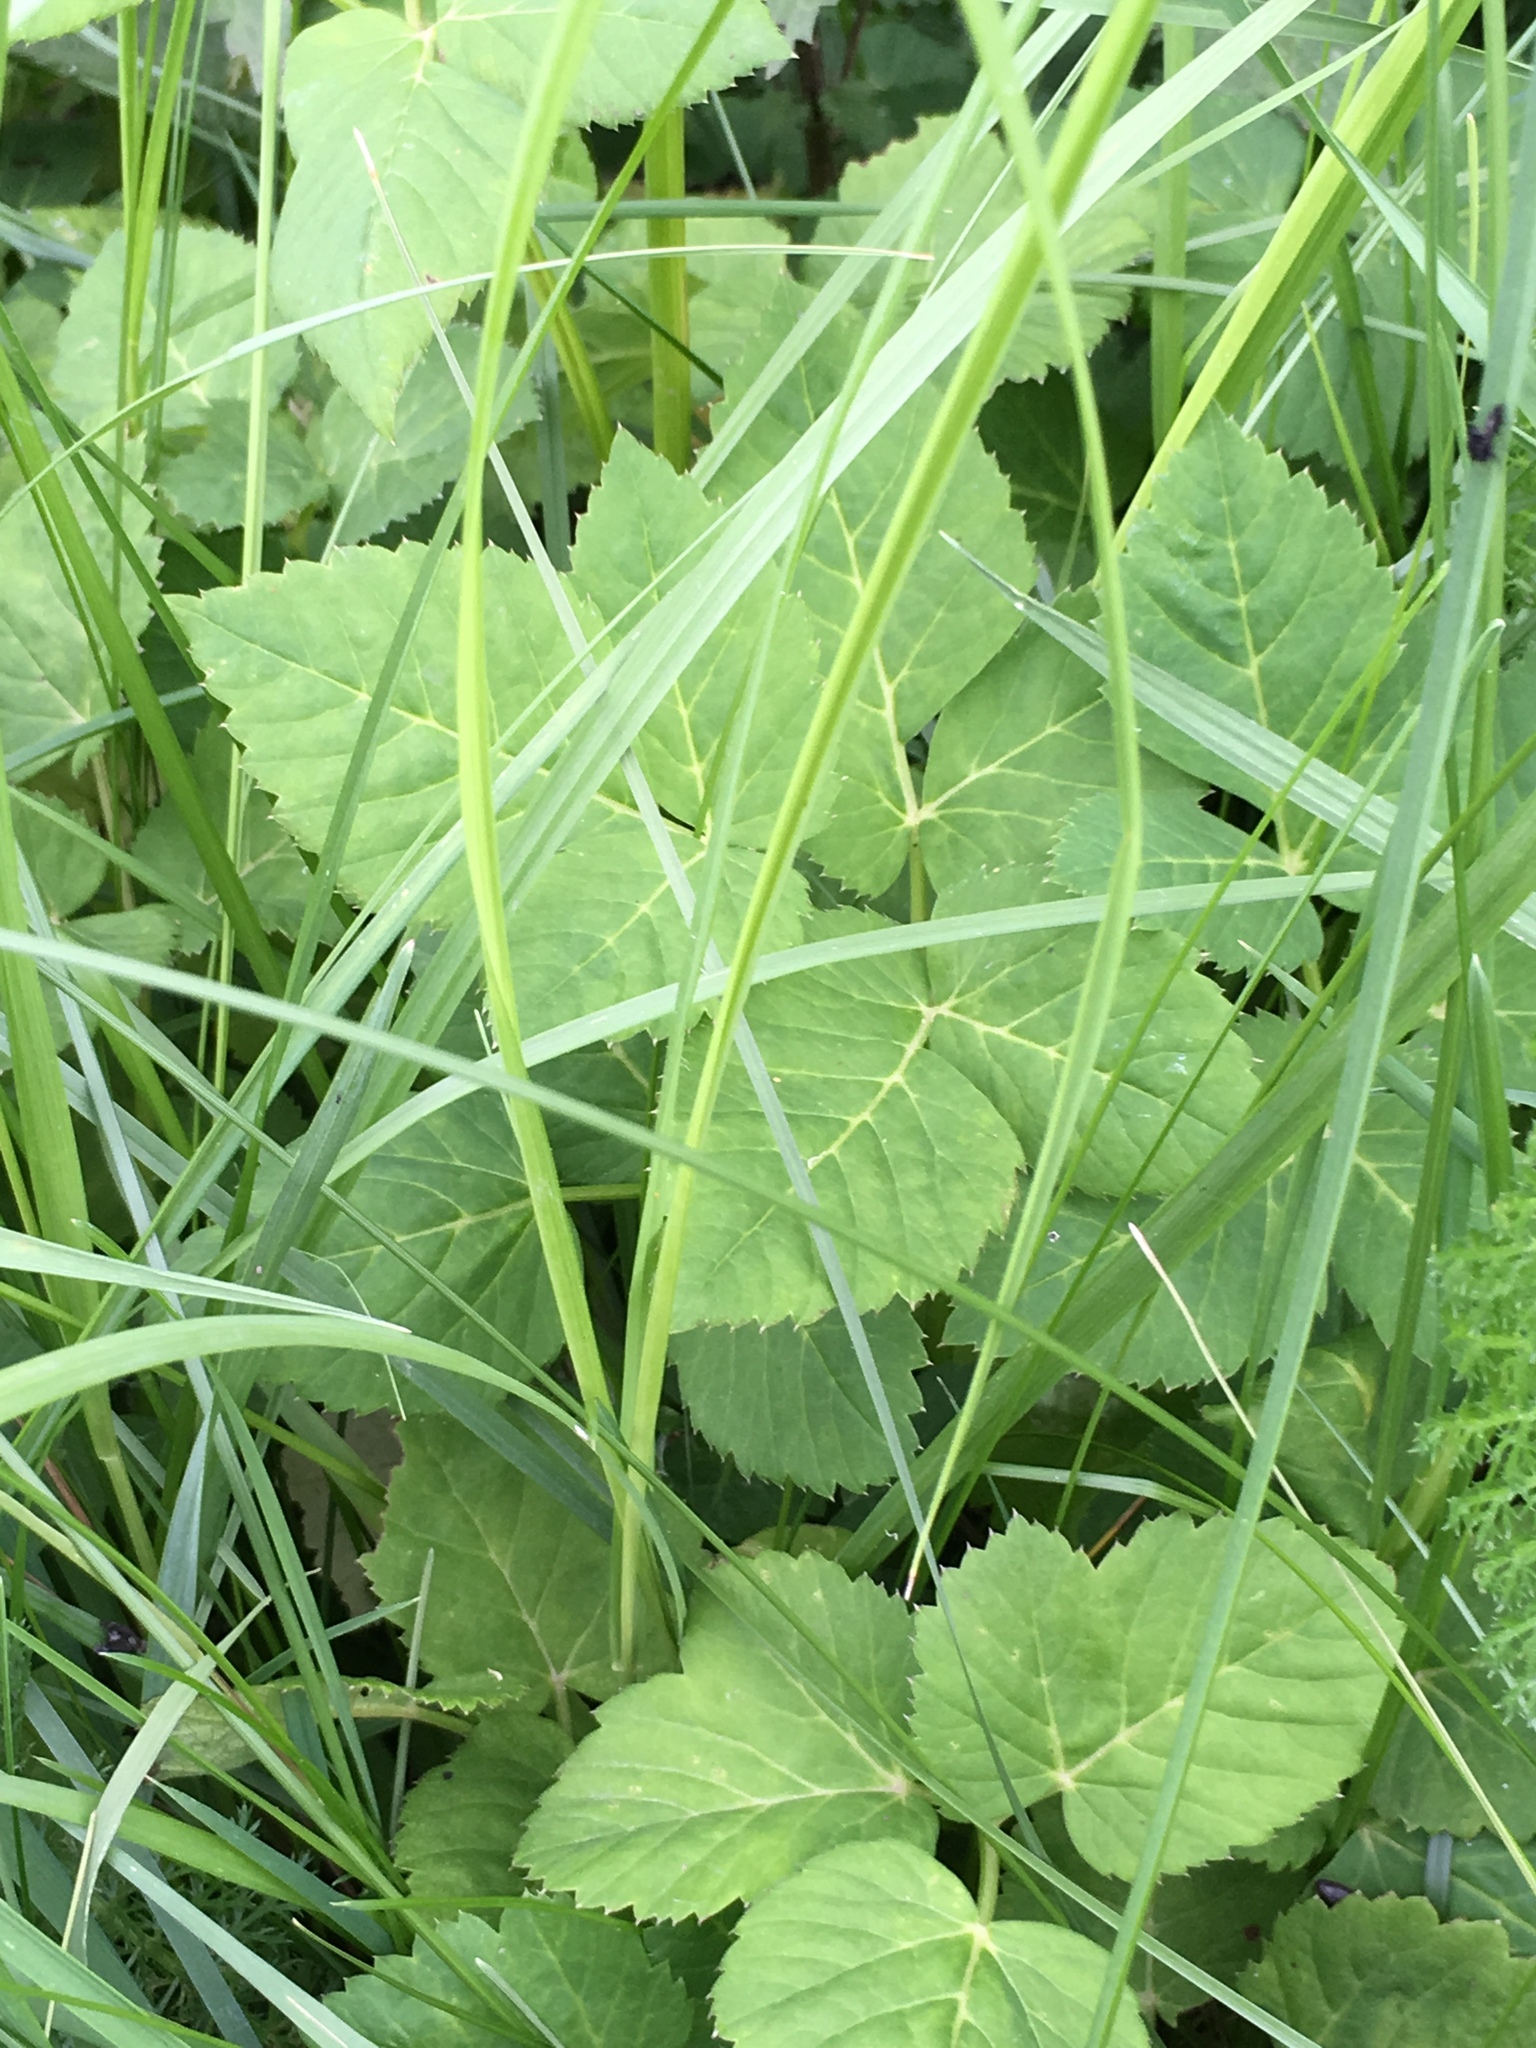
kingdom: Plantae
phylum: Tracheophyta
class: Magnoliopsida
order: Apiales
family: Apiaceae
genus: Aegopodium
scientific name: Aegopodium podagraria
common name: Ground-elder
